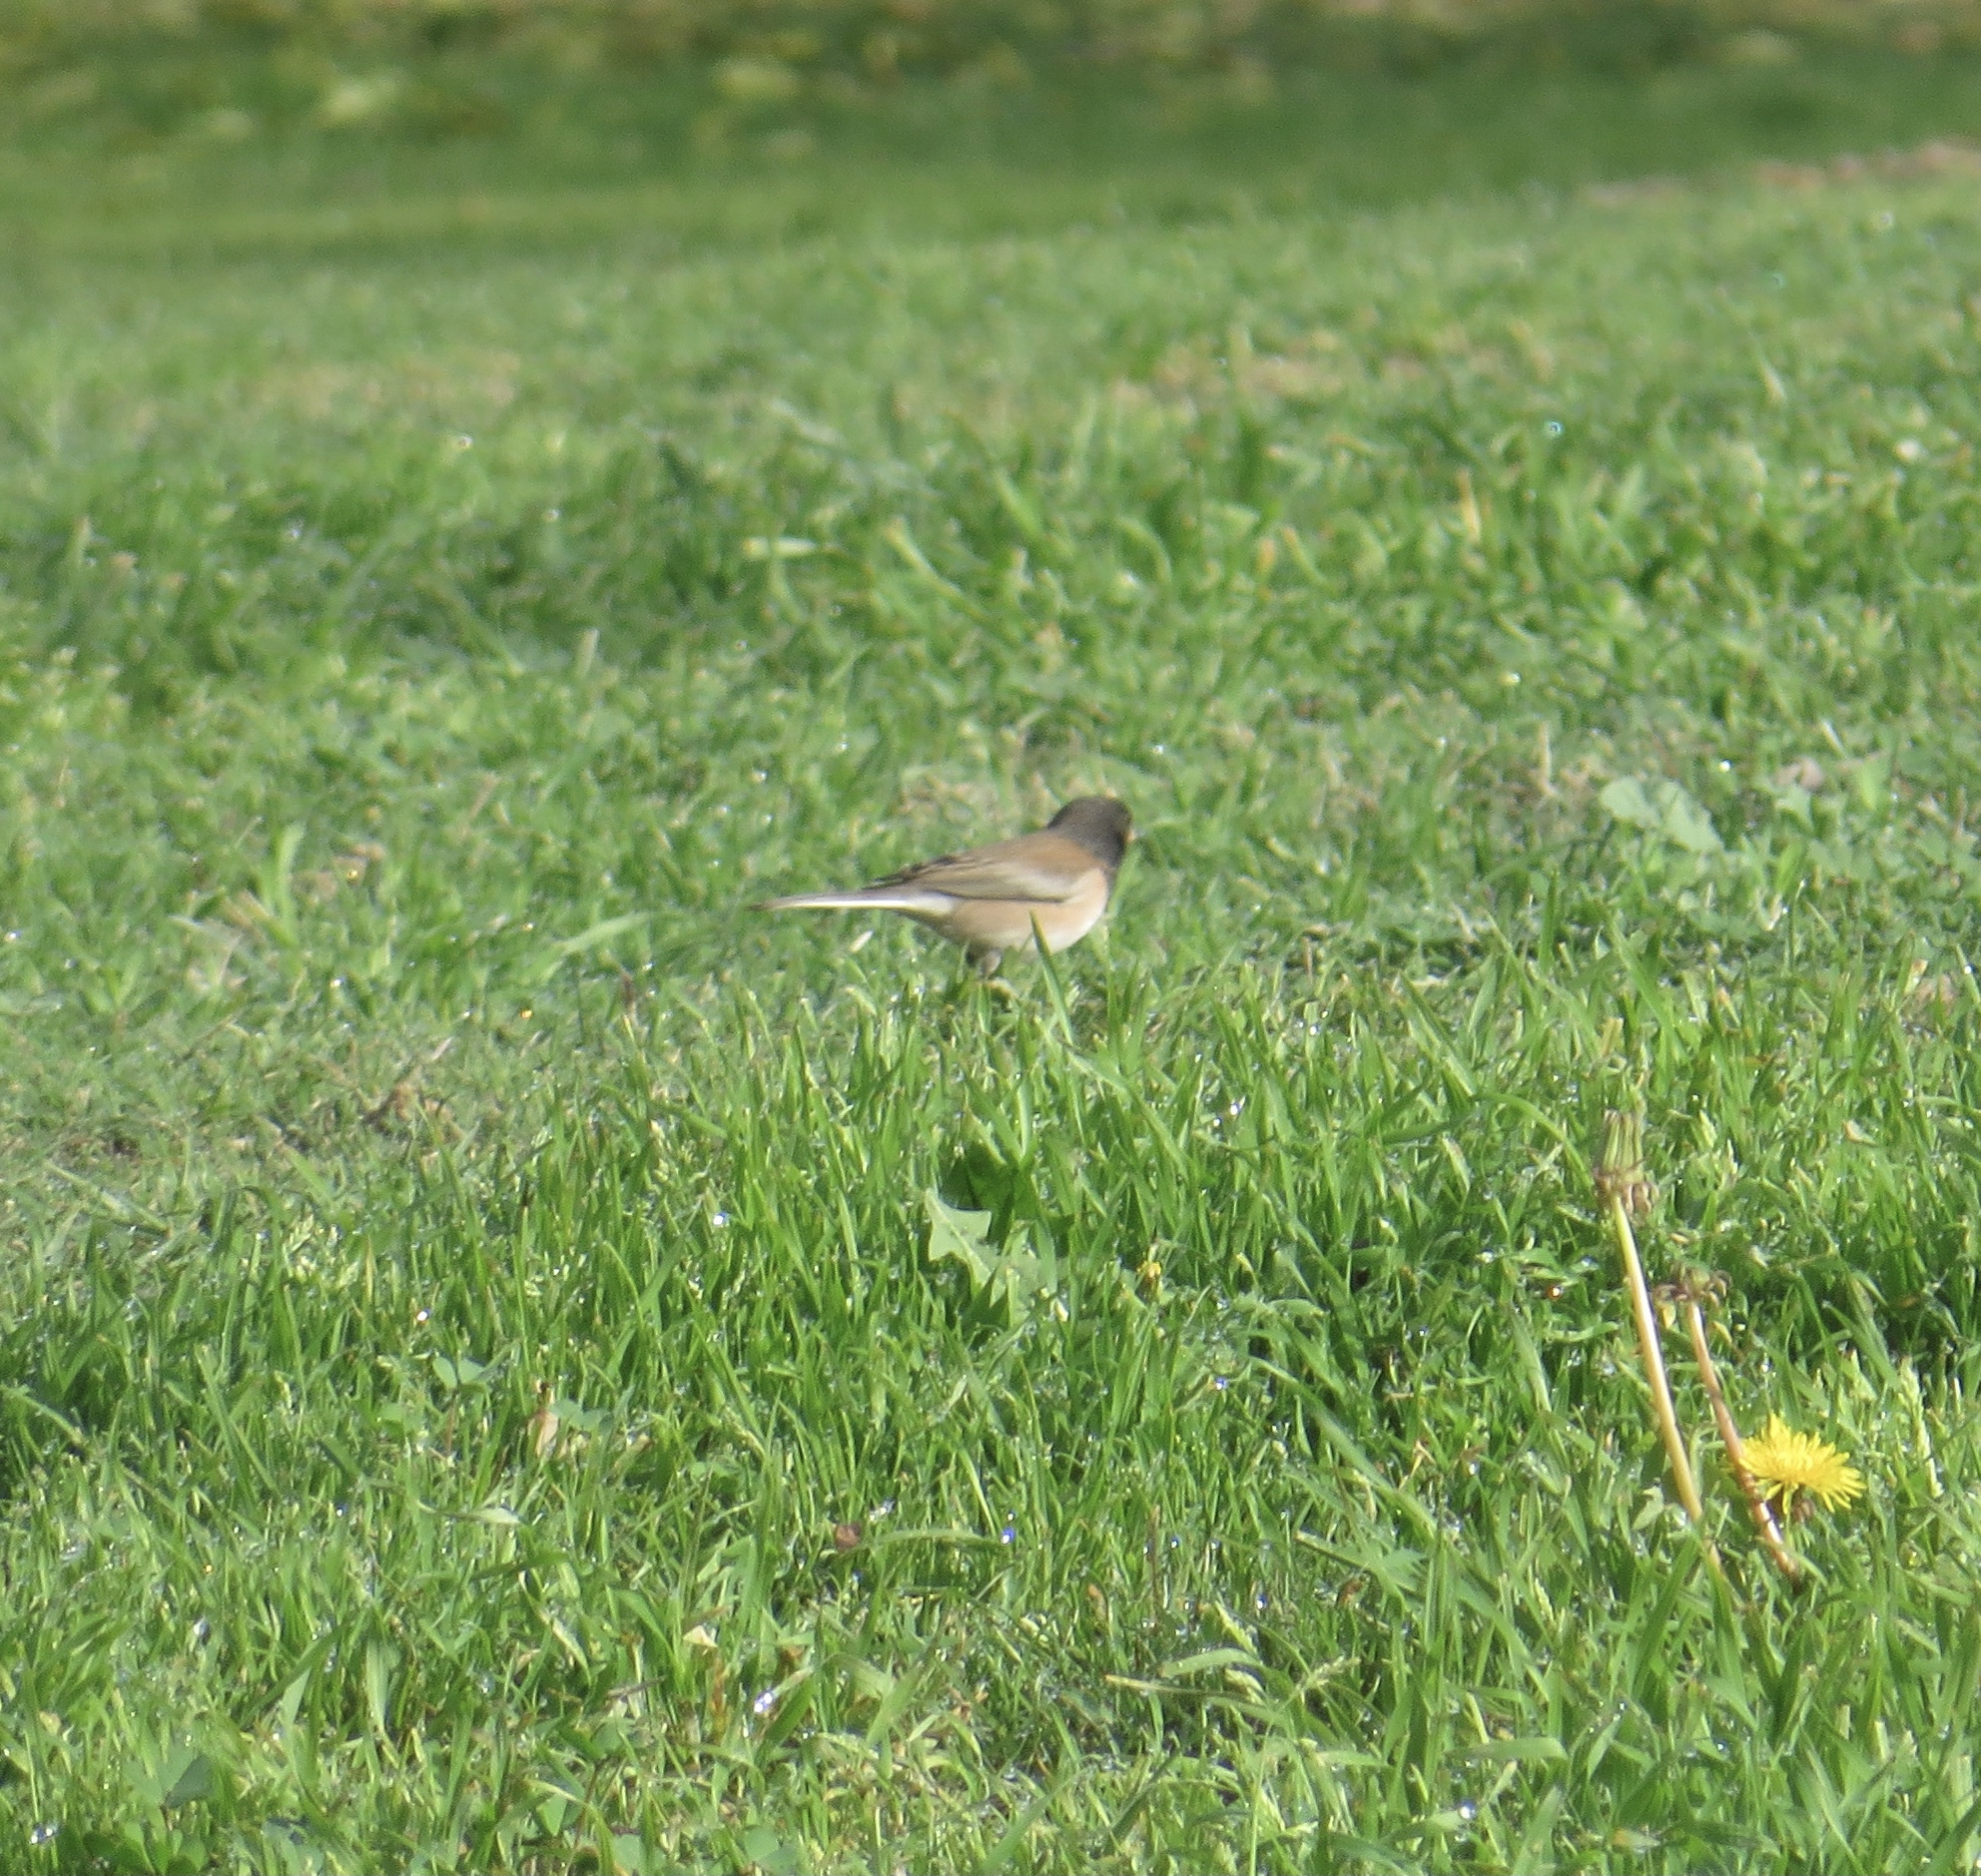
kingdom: Animalia
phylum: Chordata
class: Aves
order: Passeriformes
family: Passerellidae
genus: Junco
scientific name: Junco hyemalis
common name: Dark-eyed junco
